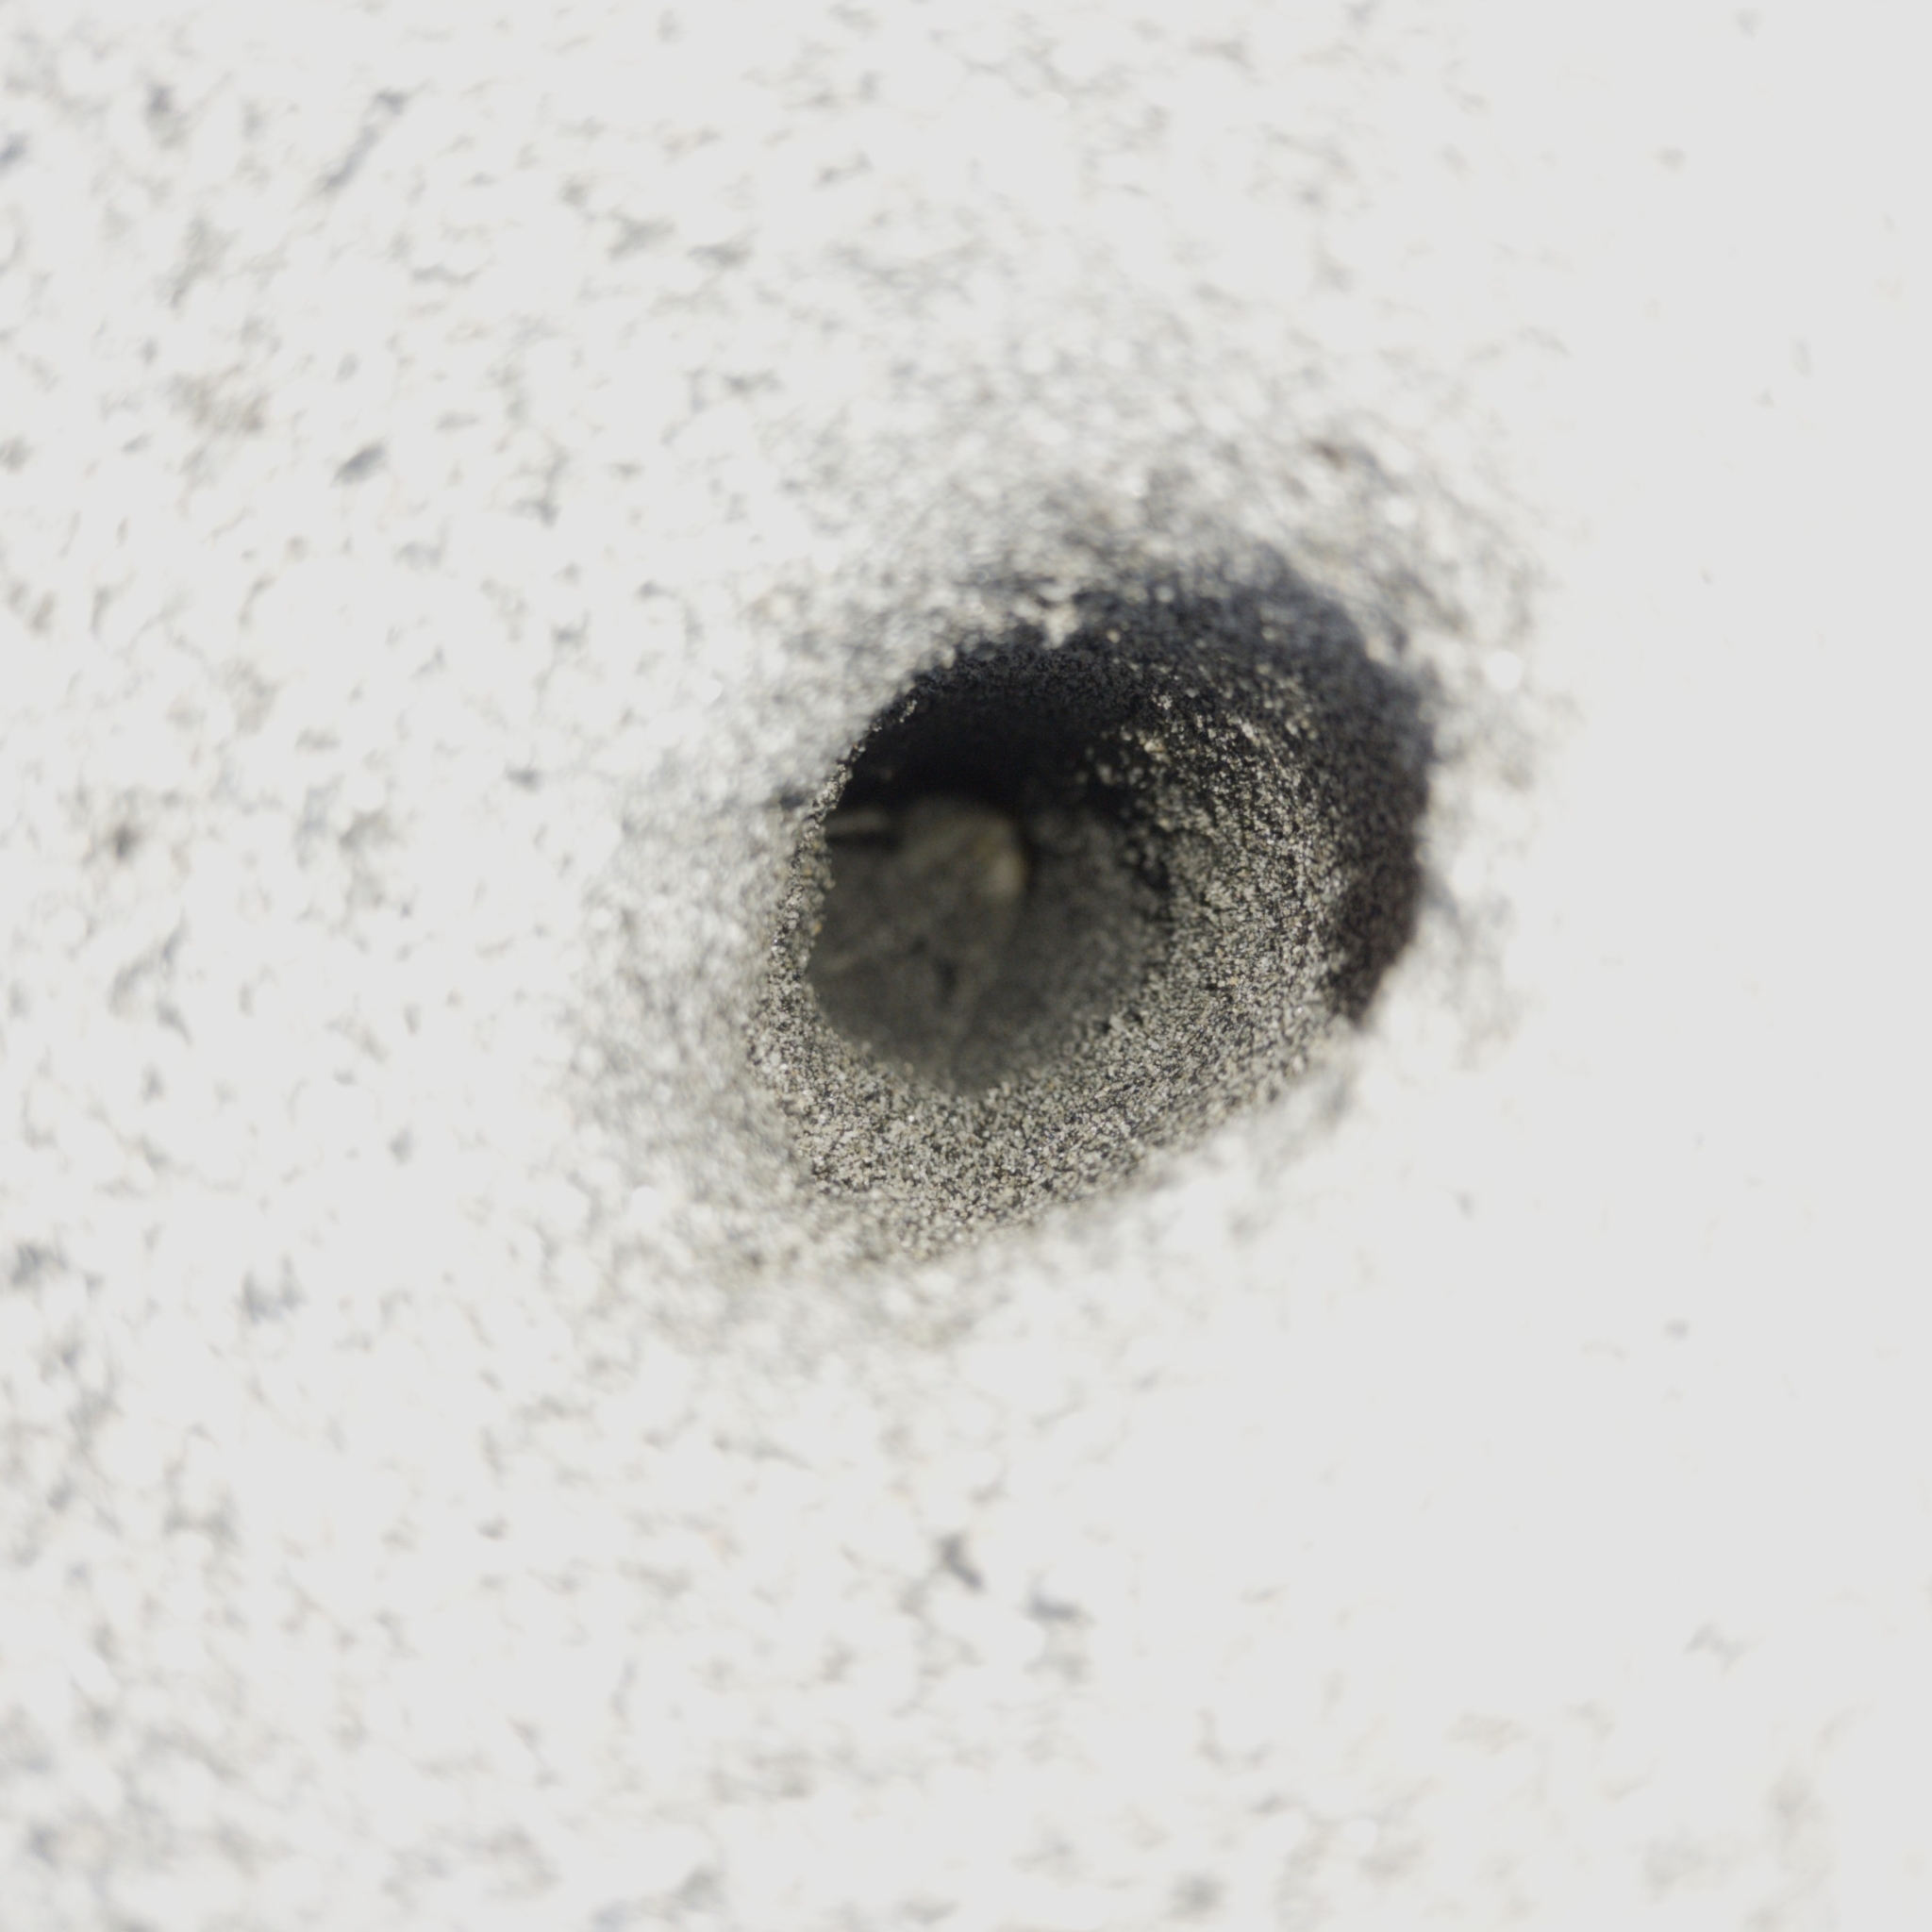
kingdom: Animalia
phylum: Arthropoda
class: Malacostraca
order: Decapoda
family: Ocypodidae
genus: Ocypode
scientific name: Ocypode quadrata
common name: Ghost crab
